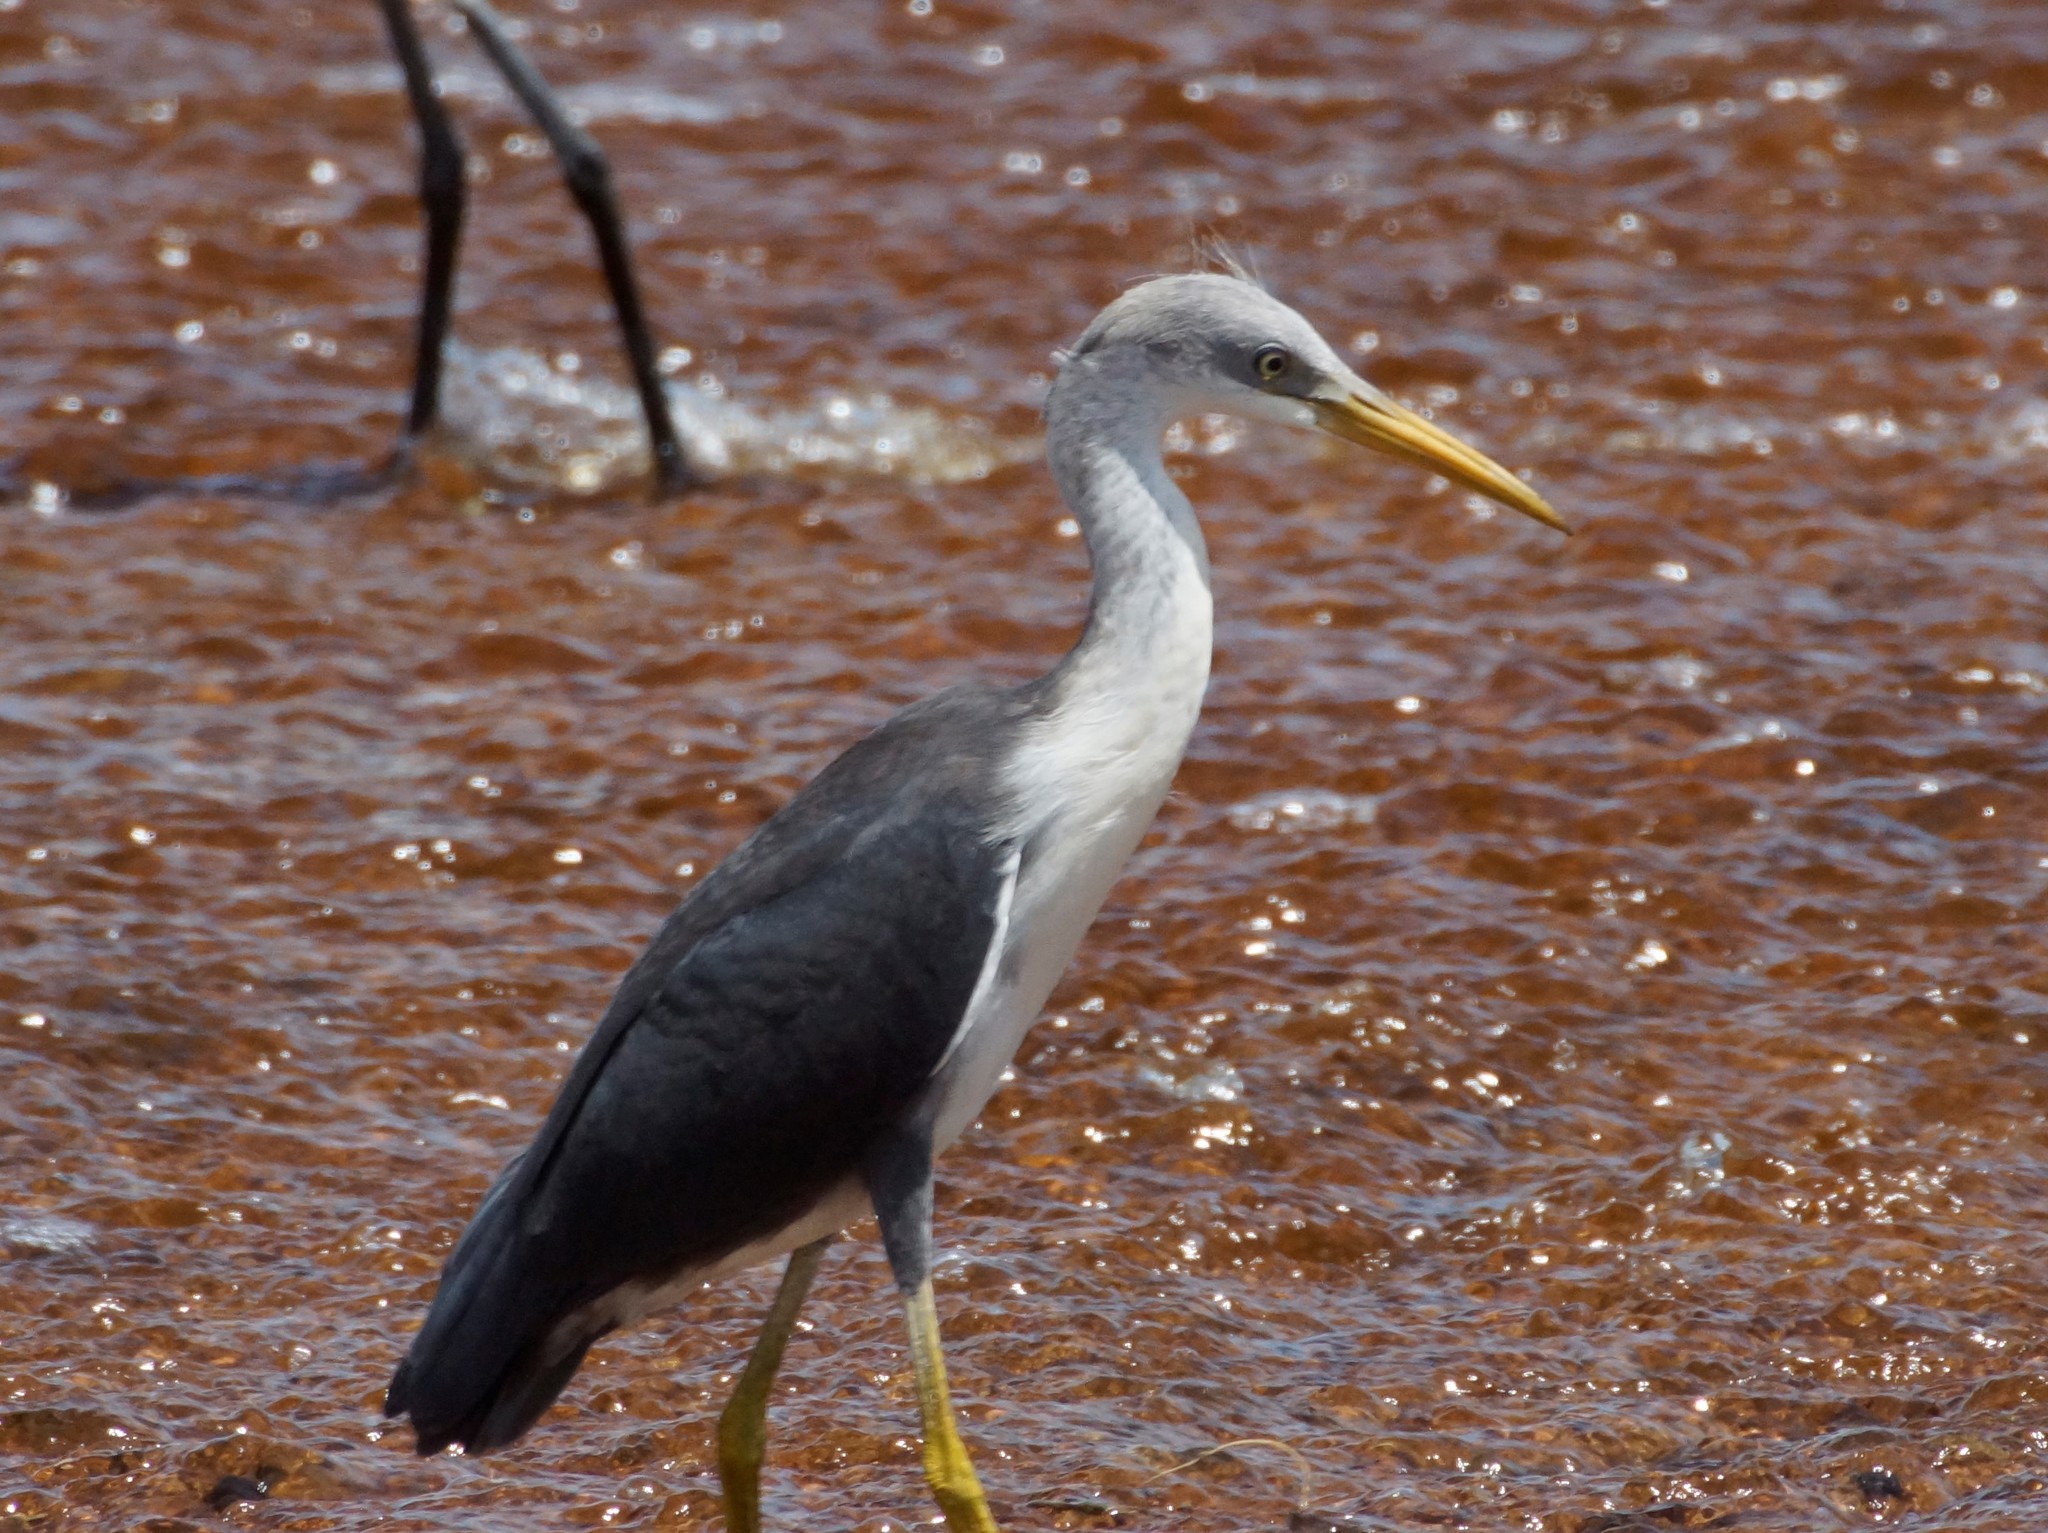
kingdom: Animalia
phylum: Chordata
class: Aves
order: Pelecaniformes
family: Ardeidae
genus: Egretta
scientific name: Egretta picata
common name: Pied heron
